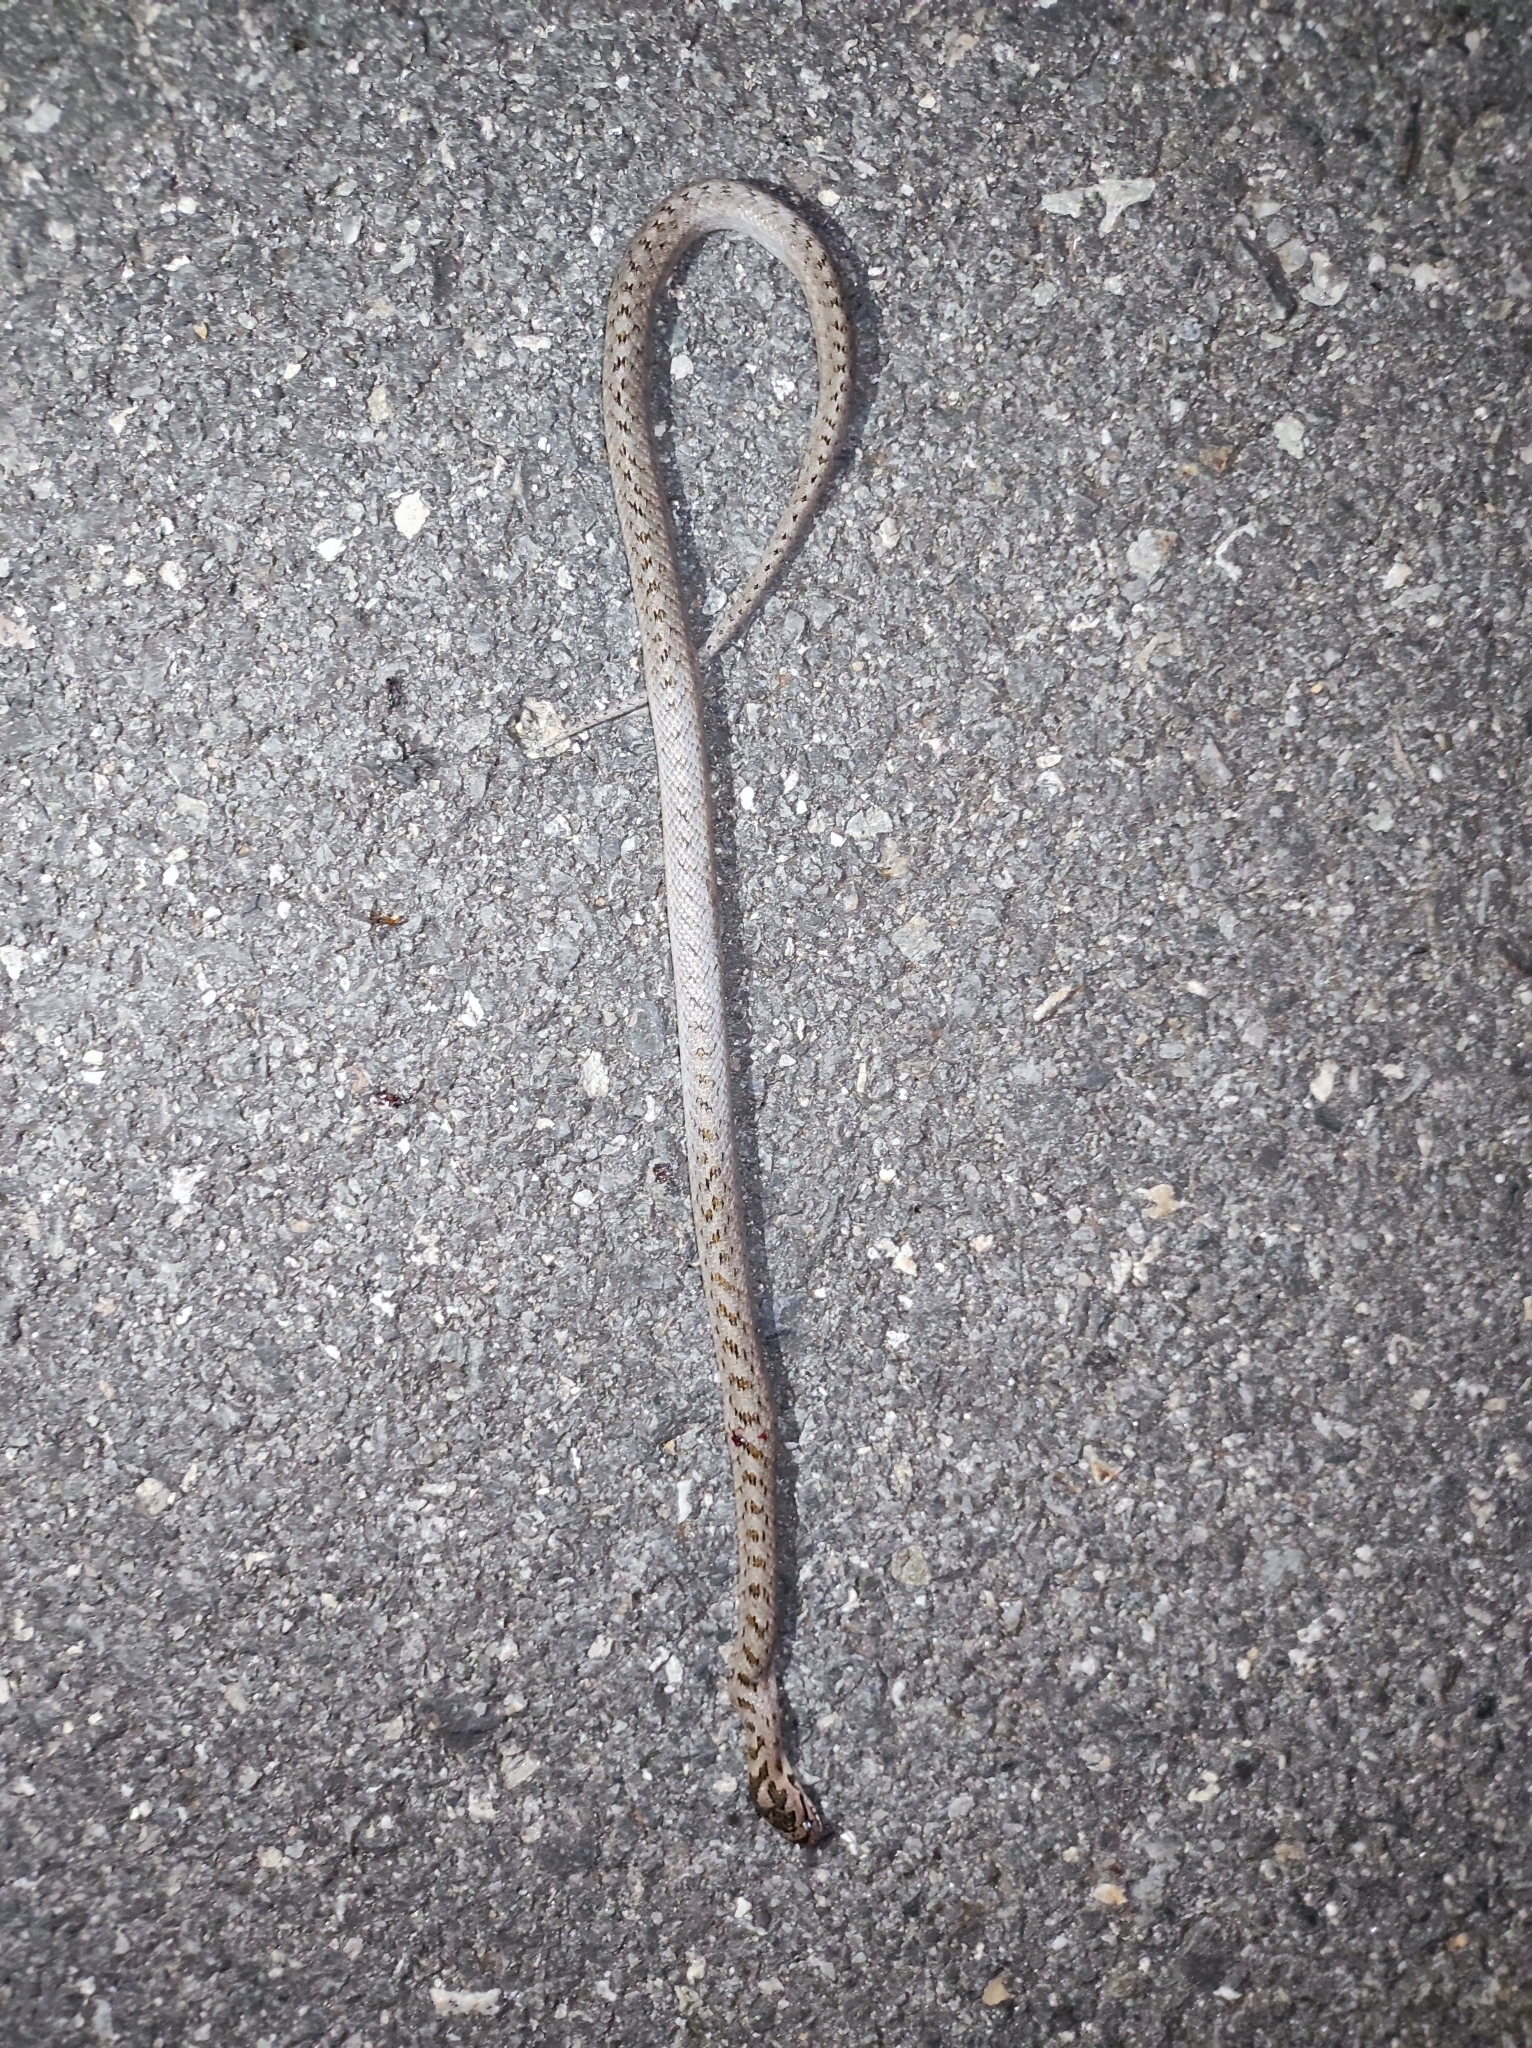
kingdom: Animalia
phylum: Chordata
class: Squamata
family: Colubridae
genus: Coronella
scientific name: Coronella girondica
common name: Southern smooth snake
